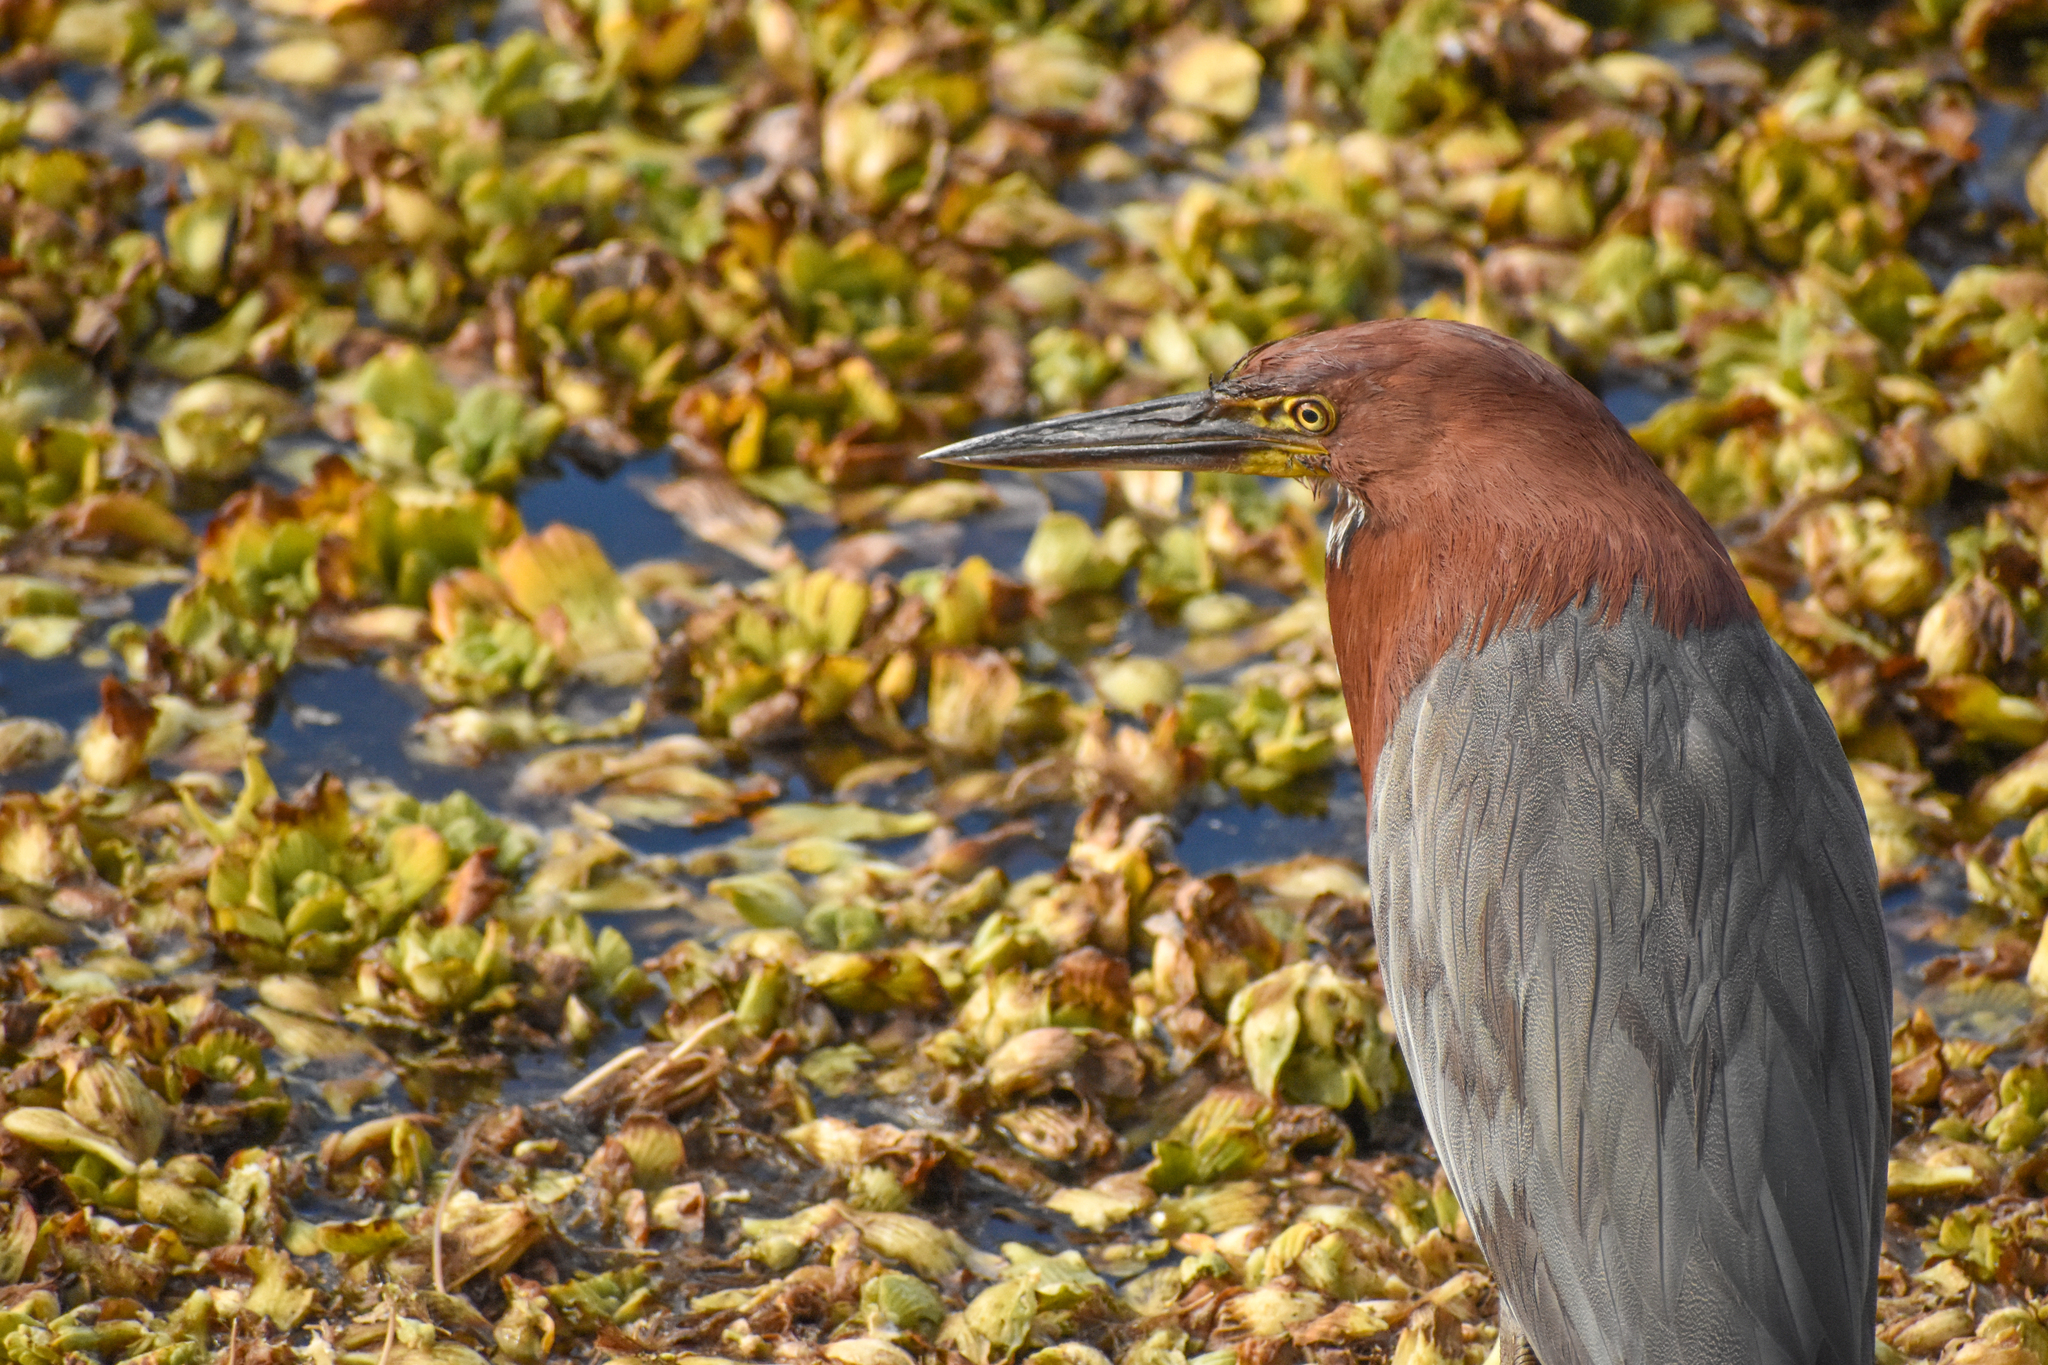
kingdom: Animalia
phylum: Chordata
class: Aves
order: Pelecaniformes
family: Ardeidae
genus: Tigrisoma
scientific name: Tigrisoma lineatum
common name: Rufescent tiger-heron
